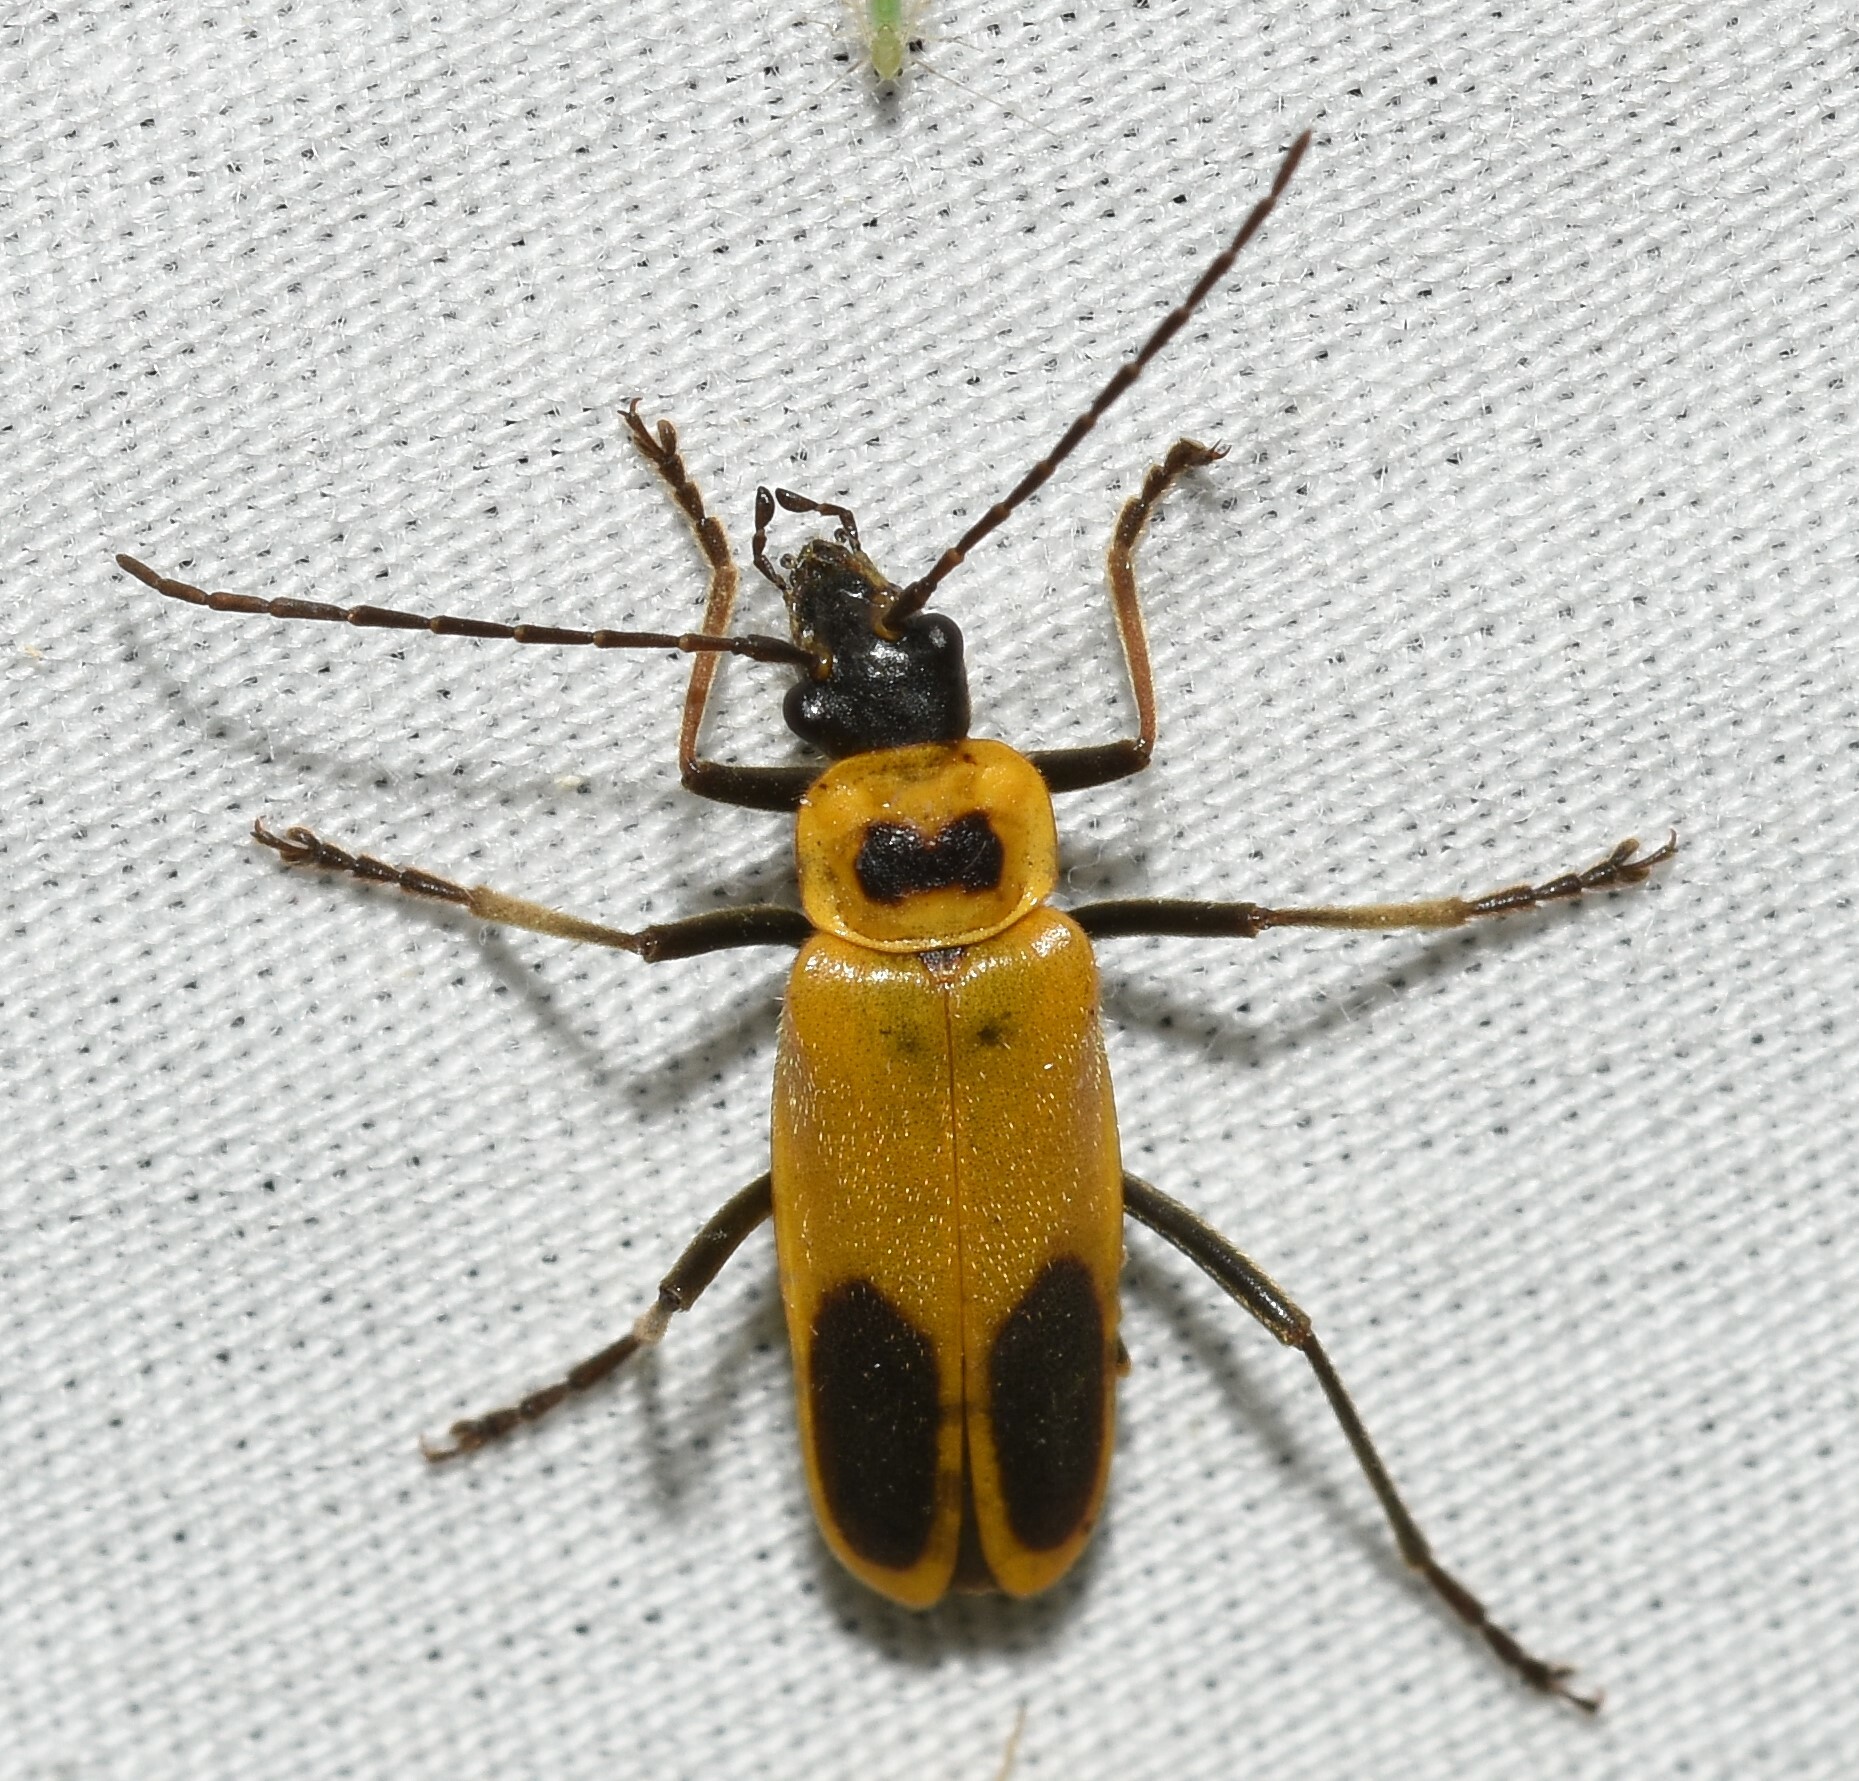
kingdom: Animalia
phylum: Arthropoda
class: Insecta
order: Coleoptera
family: Cantharidae
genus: Chauliognathus
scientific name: Chauliognathus pensylvanicus
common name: Goldenrod soldier beetle
